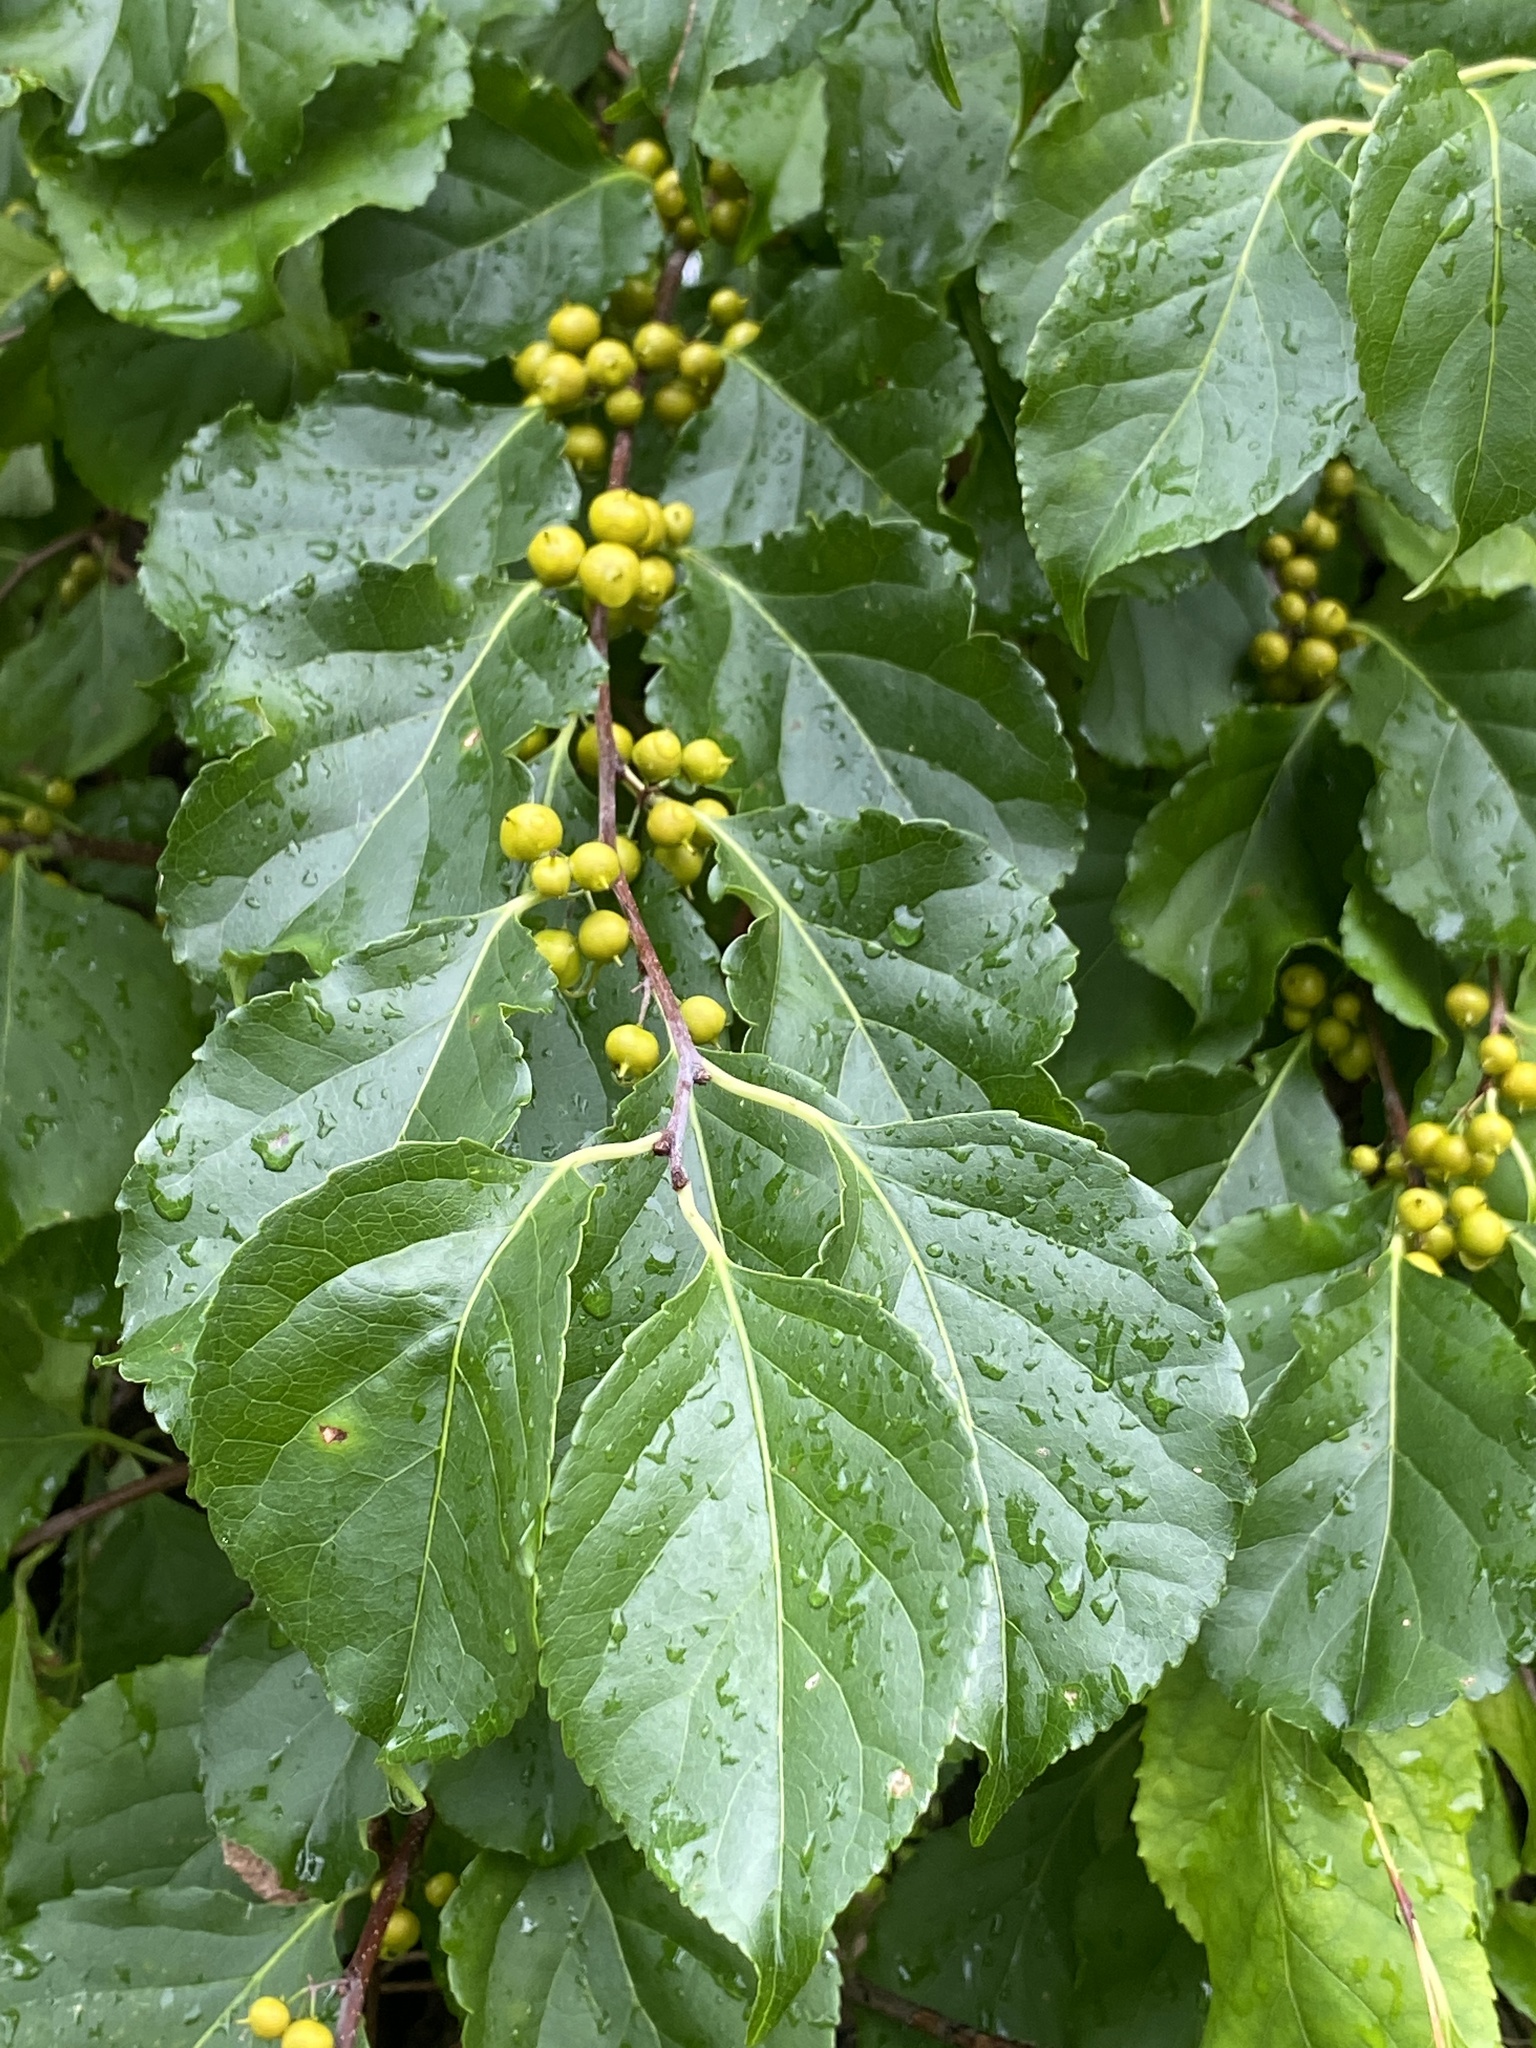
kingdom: Plantae
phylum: Tracheophyta
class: Magnoliopsida
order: Celastrales
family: Celastraceae
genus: Celastrus
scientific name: Celastrus orbiculatus
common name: Oriental bittersweet
